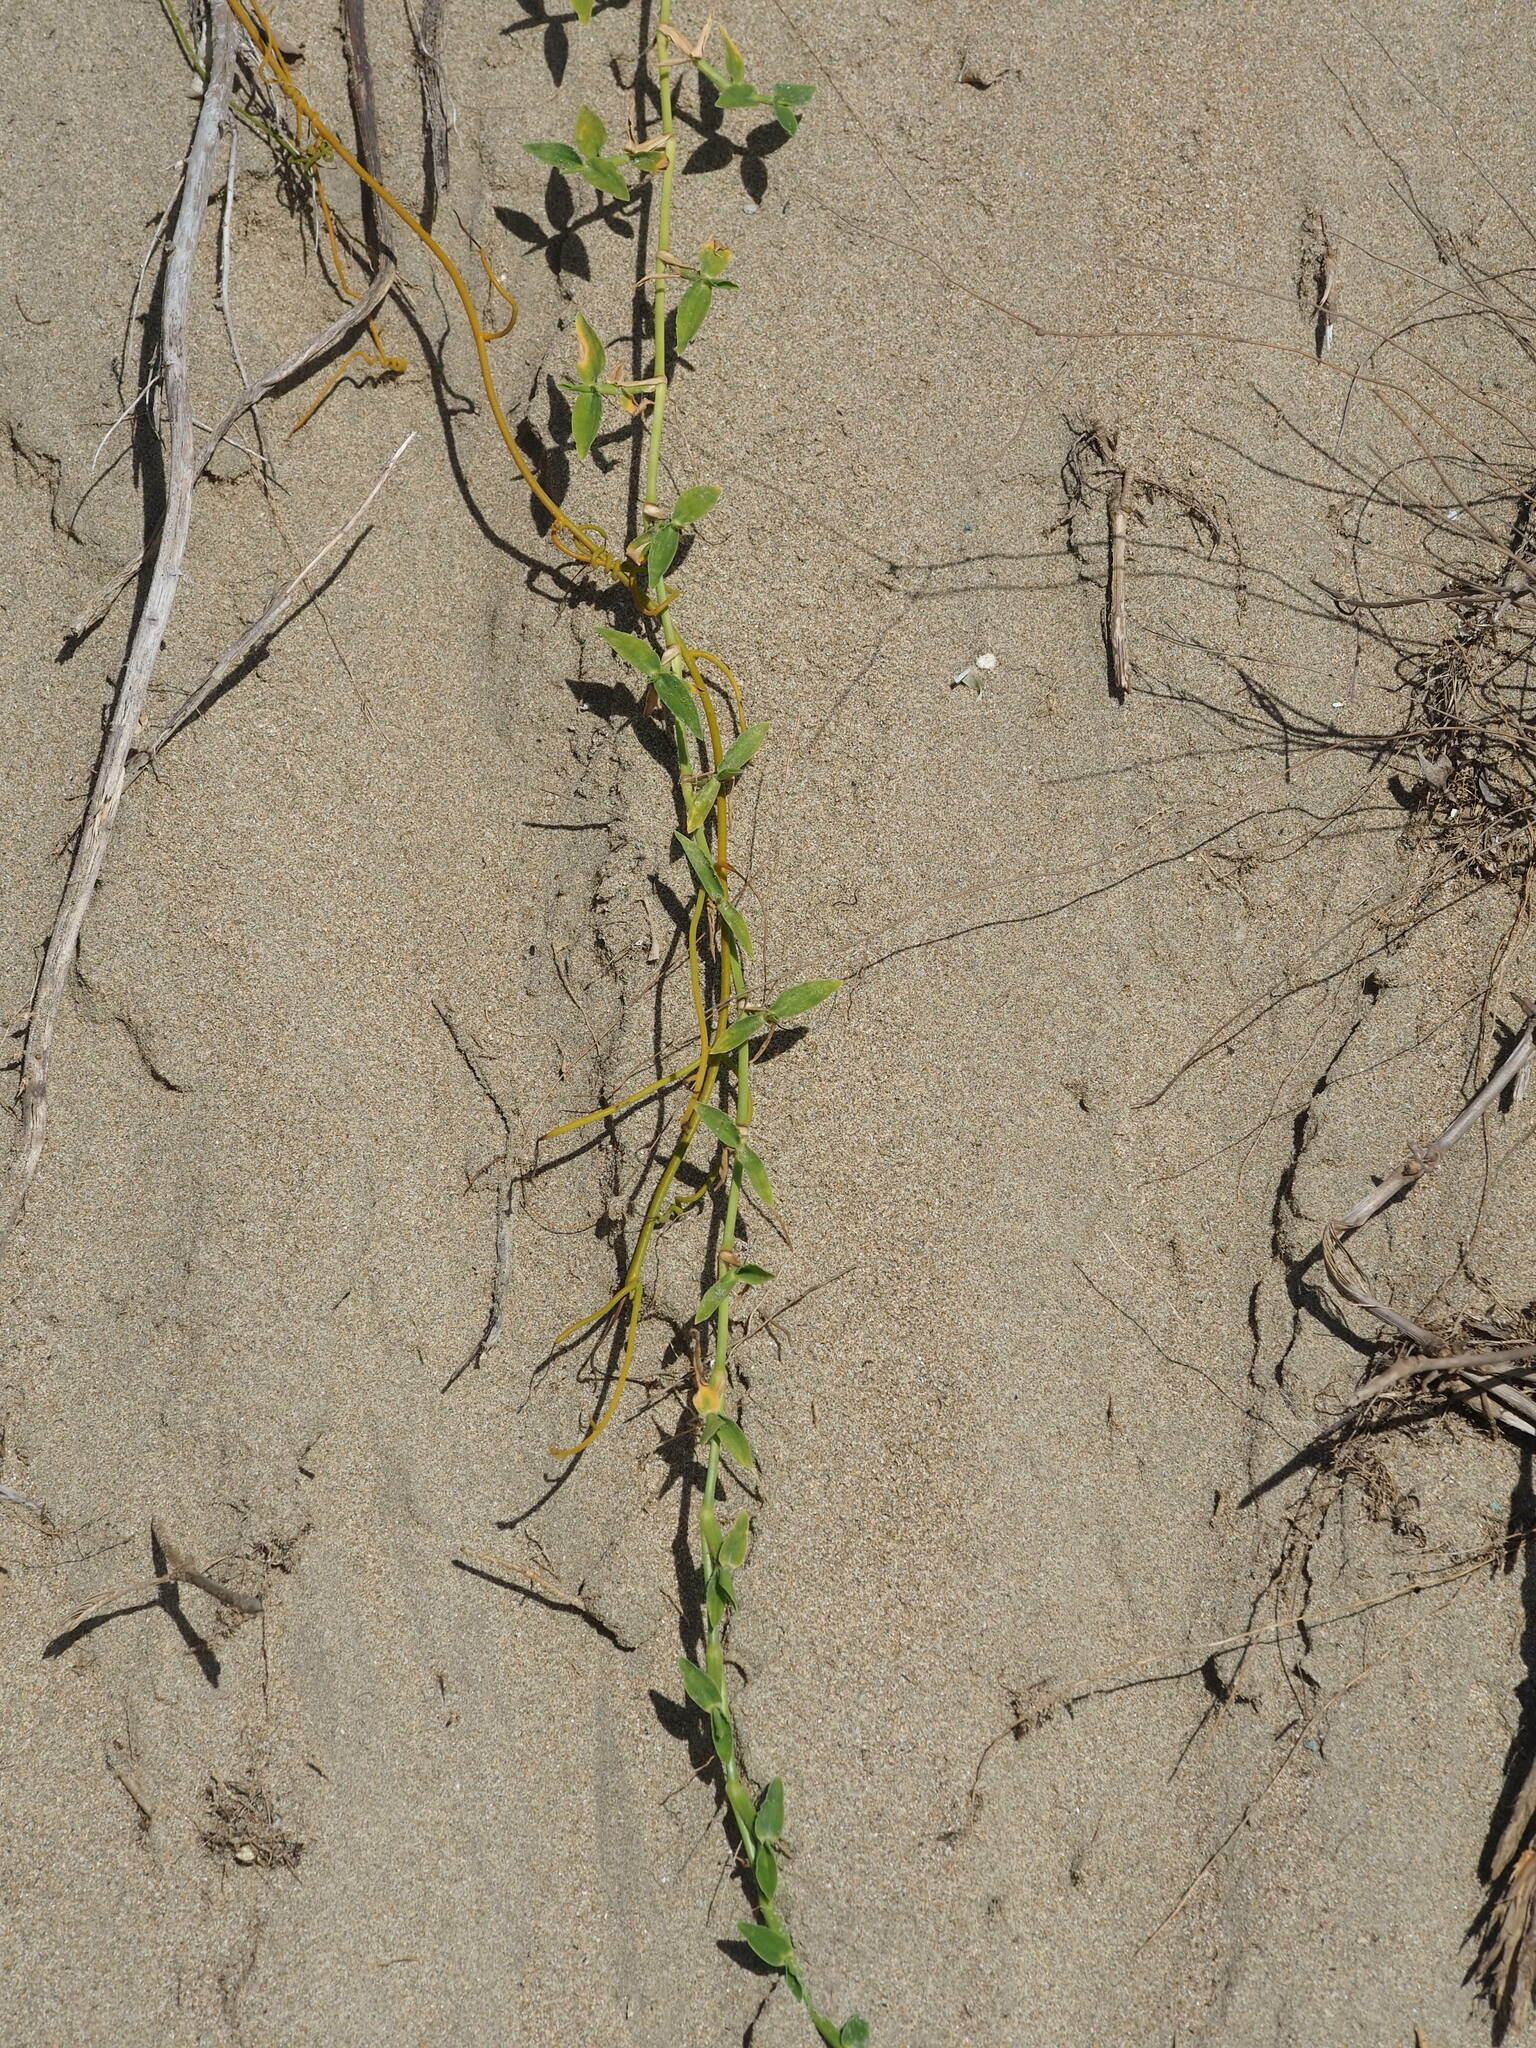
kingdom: Plantae
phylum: Tracheophyta
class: Liliopsida
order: Poales
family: Poaceae
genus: Thuarea
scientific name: Thuarea involuta
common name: Tropical beach grass
